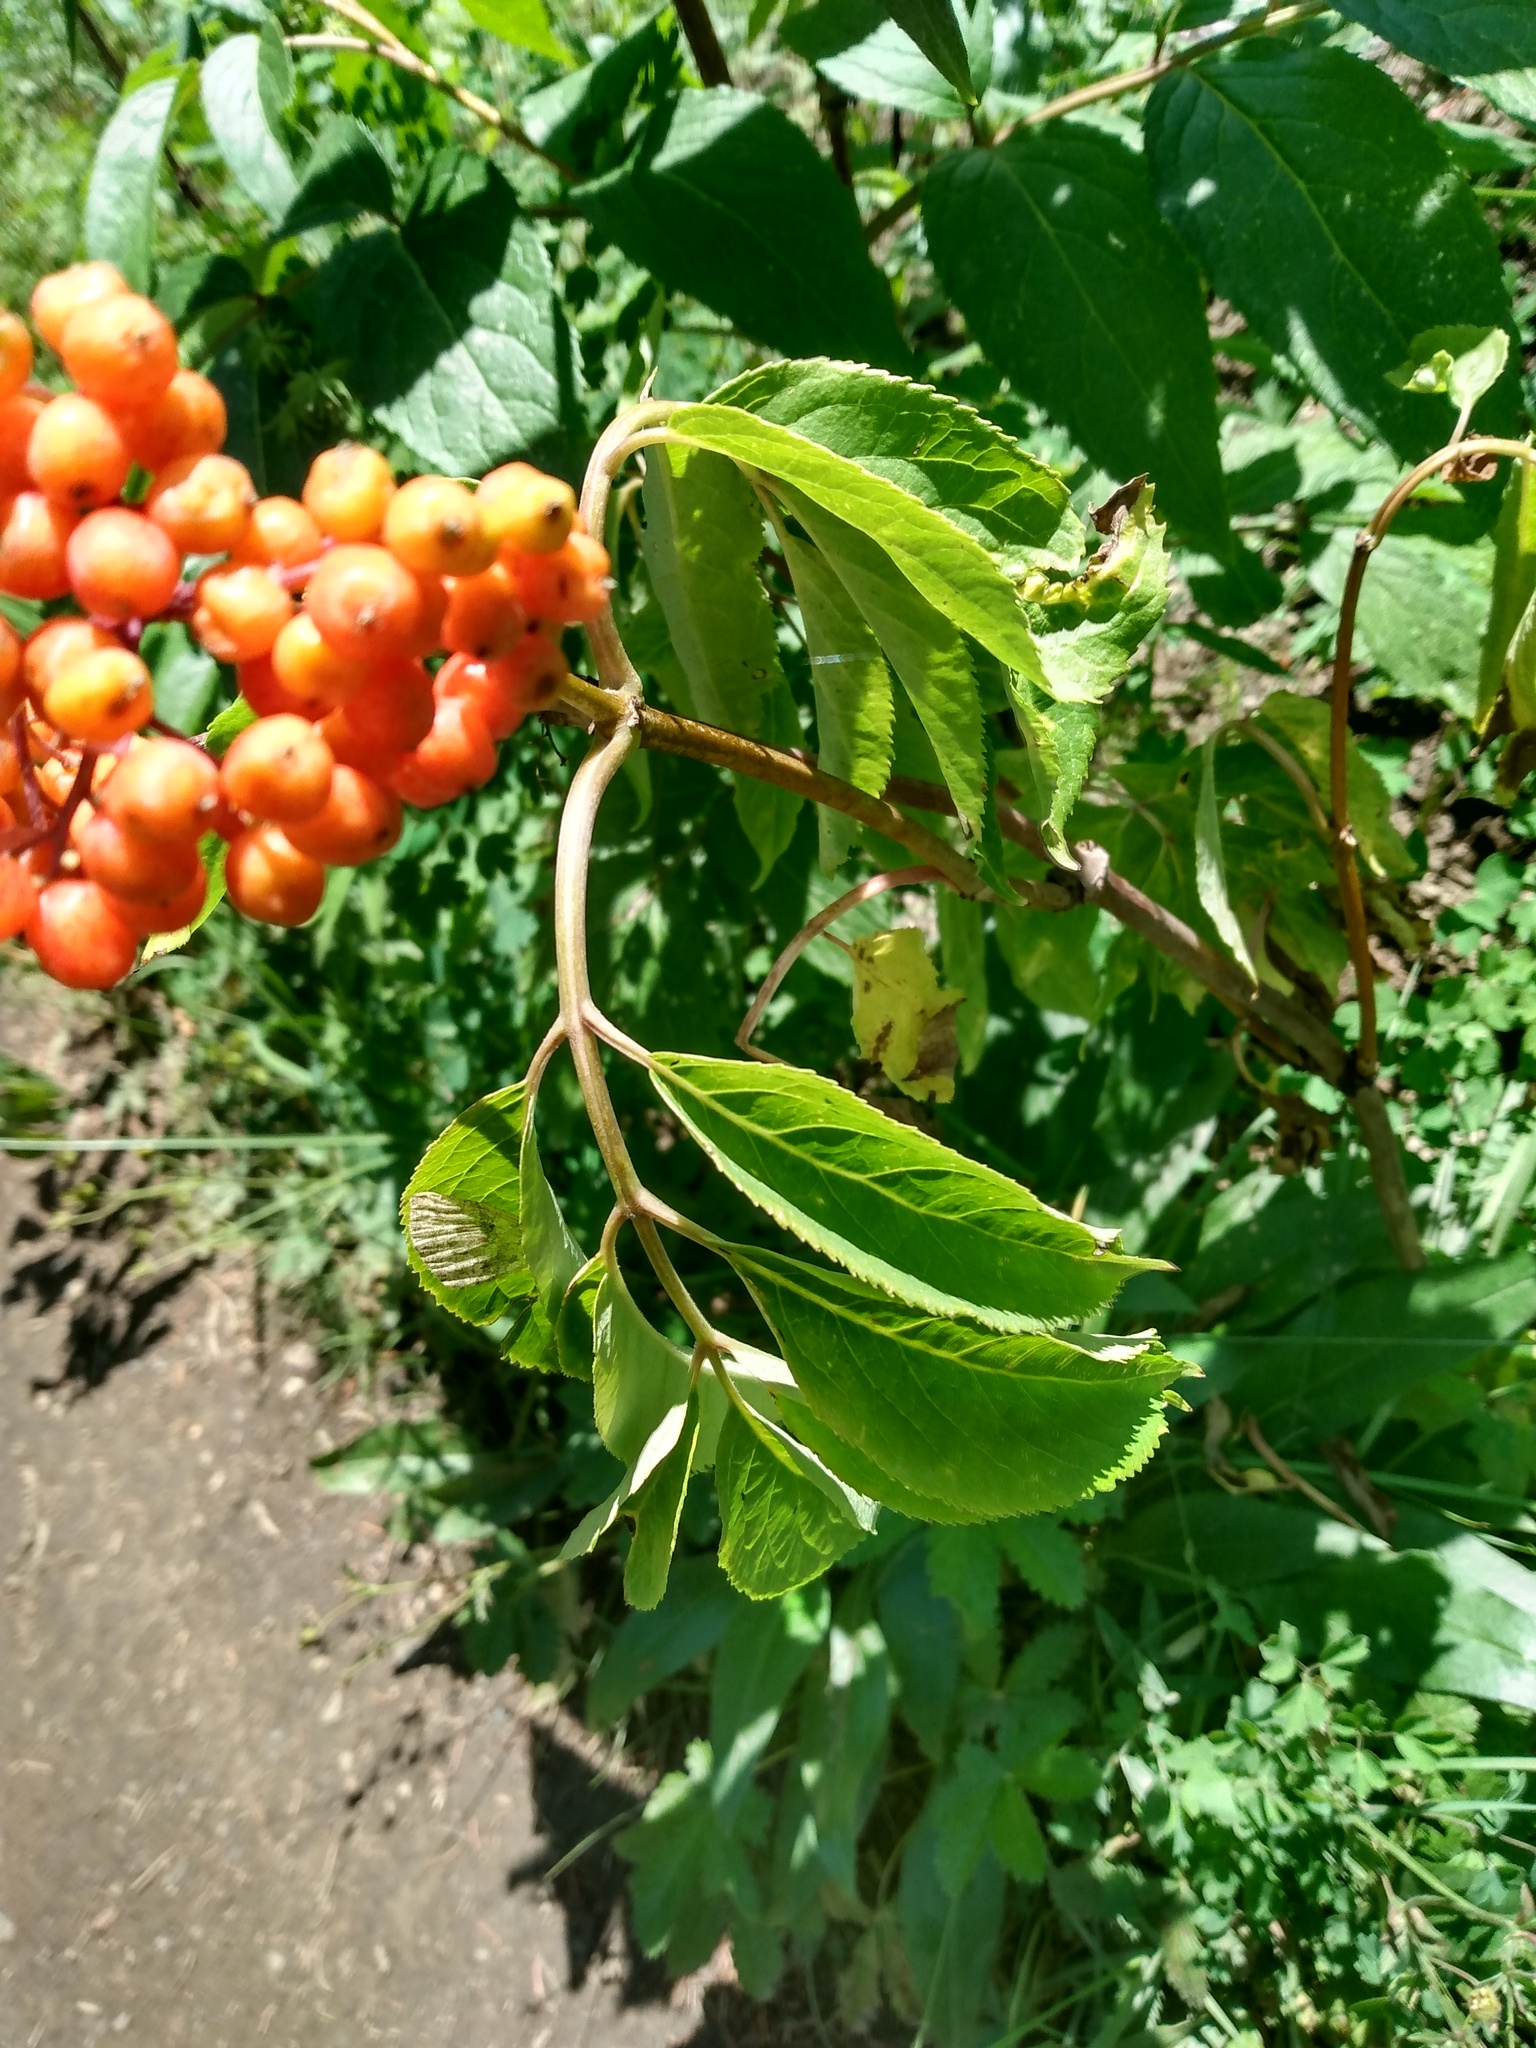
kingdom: Plantae
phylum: Tracheophyta
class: Magnoliopsida
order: Dipsacales
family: Viburnaceae
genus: Sambucus
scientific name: Sambucus racemosa
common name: Red-berried elder
